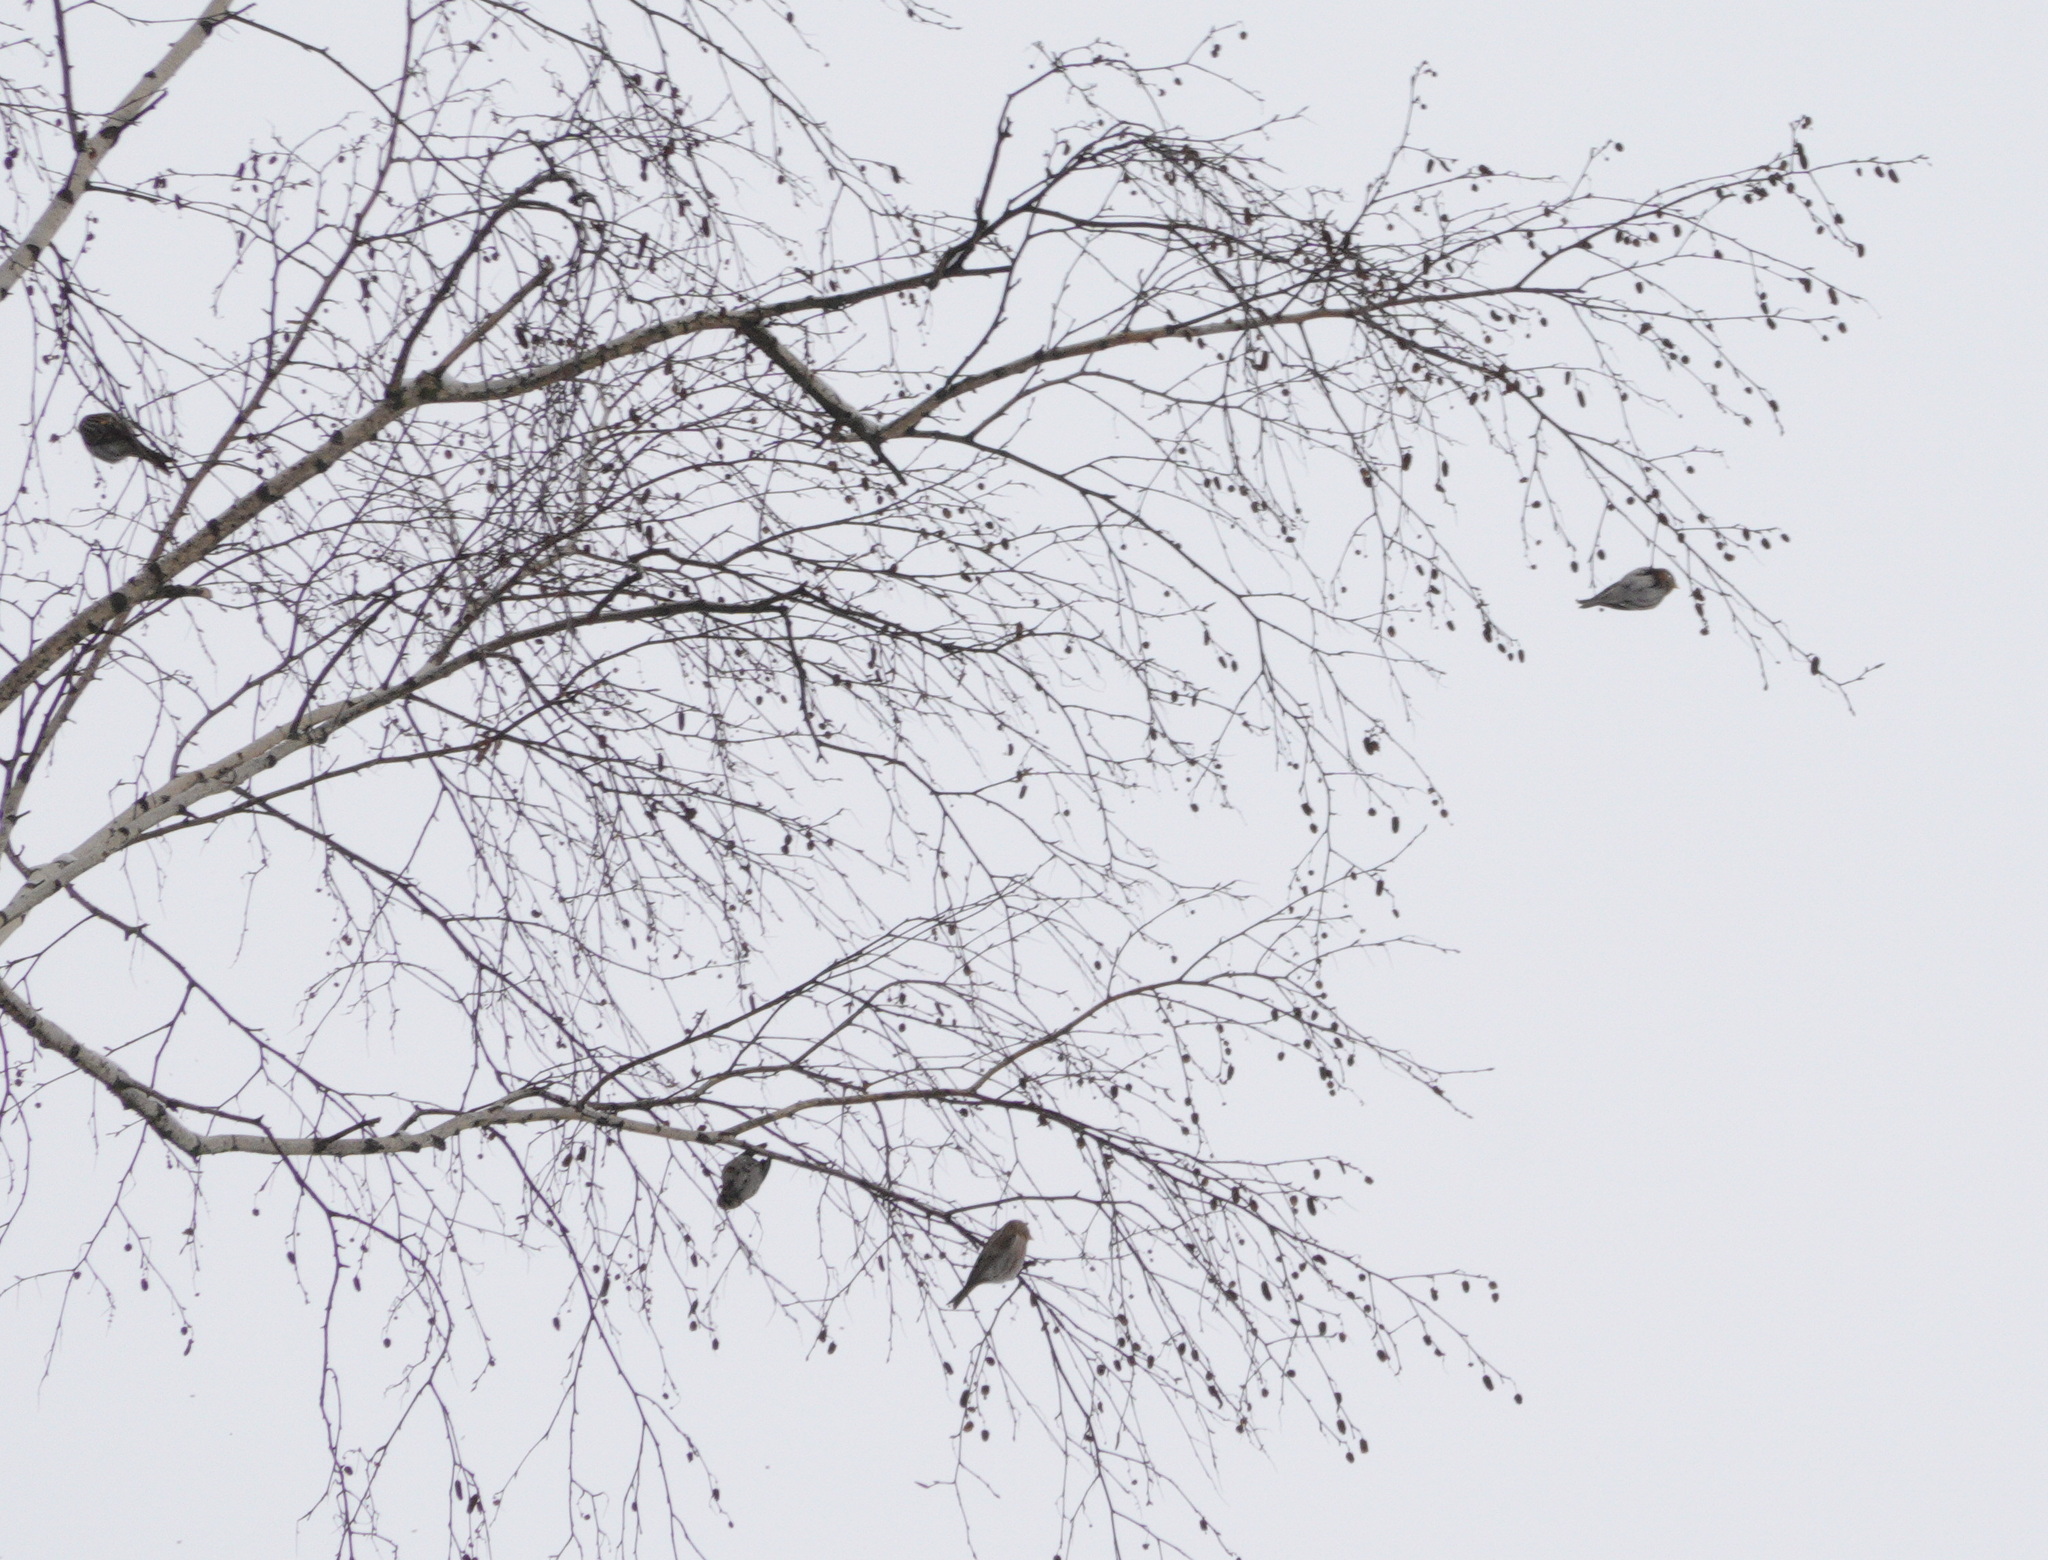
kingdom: Animalia
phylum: Chordata
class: Aves
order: Passeriformes
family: Fringillidae
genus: Acanthis
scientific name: Acanthis flammea
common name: Common redpoll
